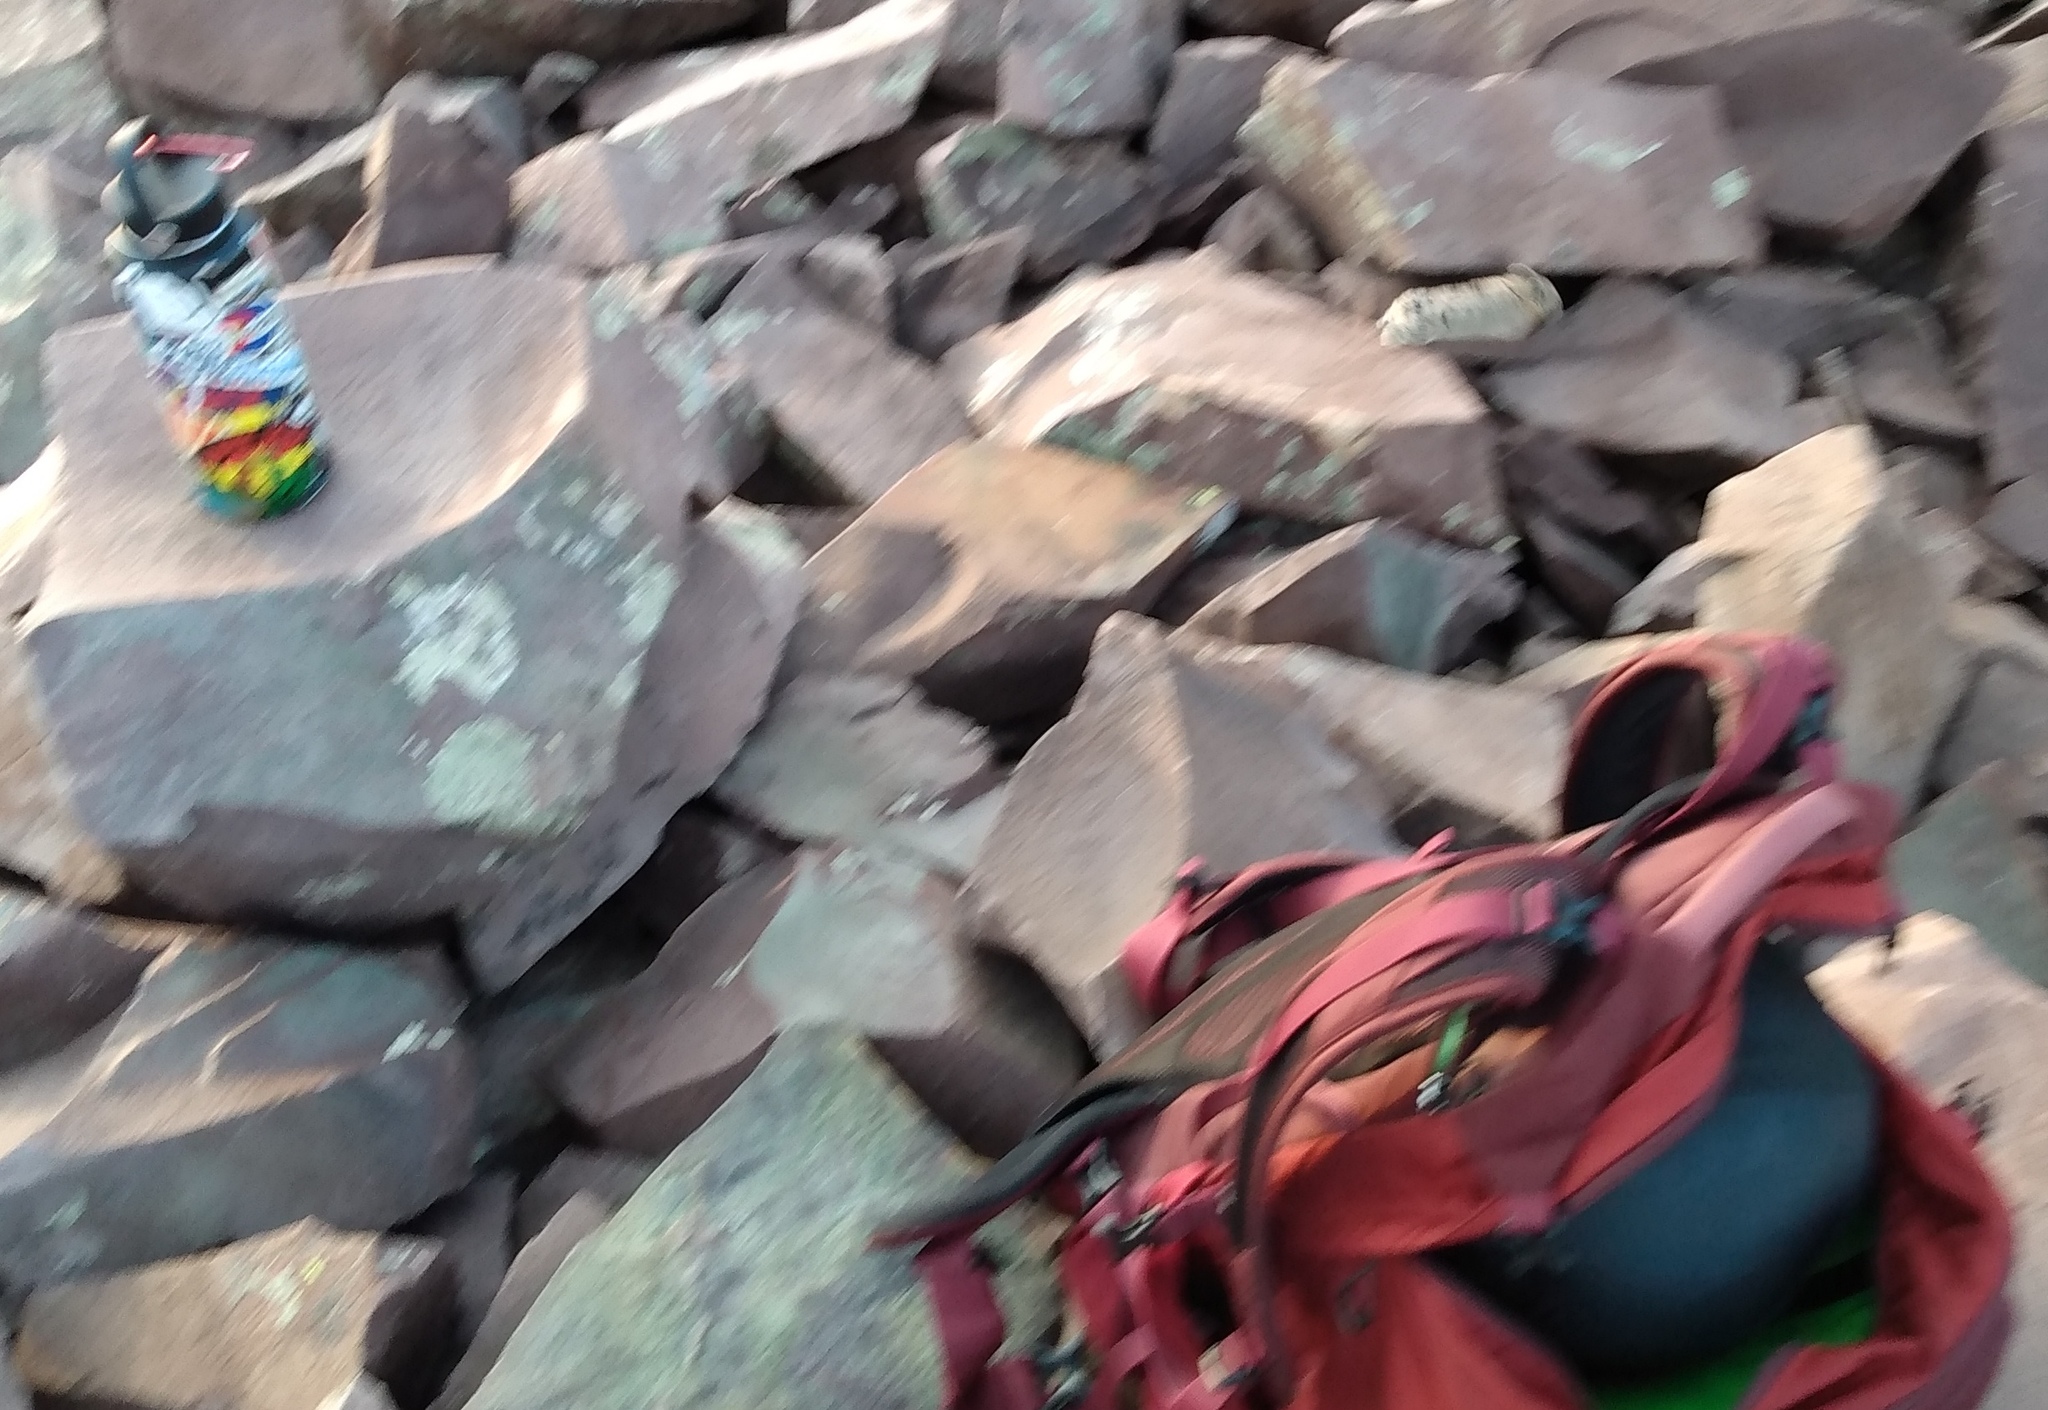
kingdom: Animalia
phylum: Chordata
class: Mammalia
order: Lagomorpha
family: Ochotonidae
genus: Ochotona
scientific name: Ochotona princeps
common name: American pika
